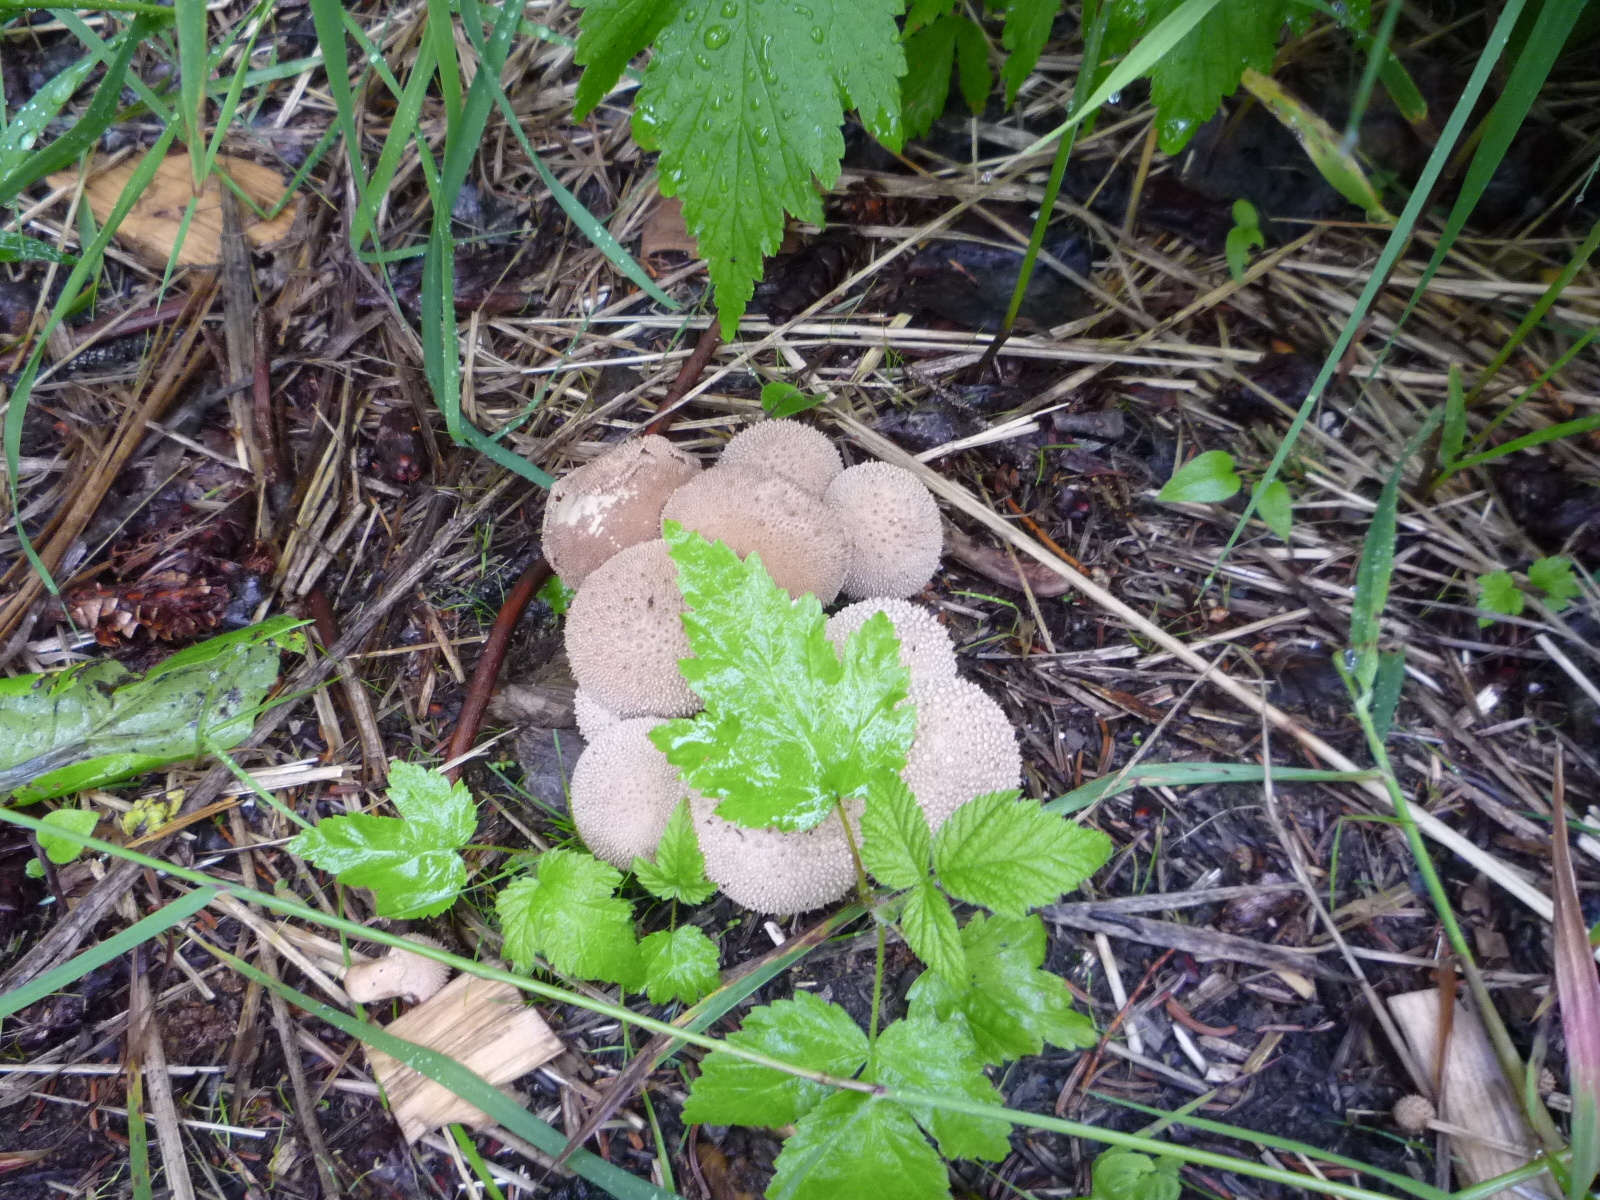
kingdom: Fungi
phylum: Basidiomycota
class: Agaricomycetes
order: Agaricales
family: Lycoperdaceae
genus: Lycoperdon
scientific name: Lycoperdon perlatum
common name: Common puffball
